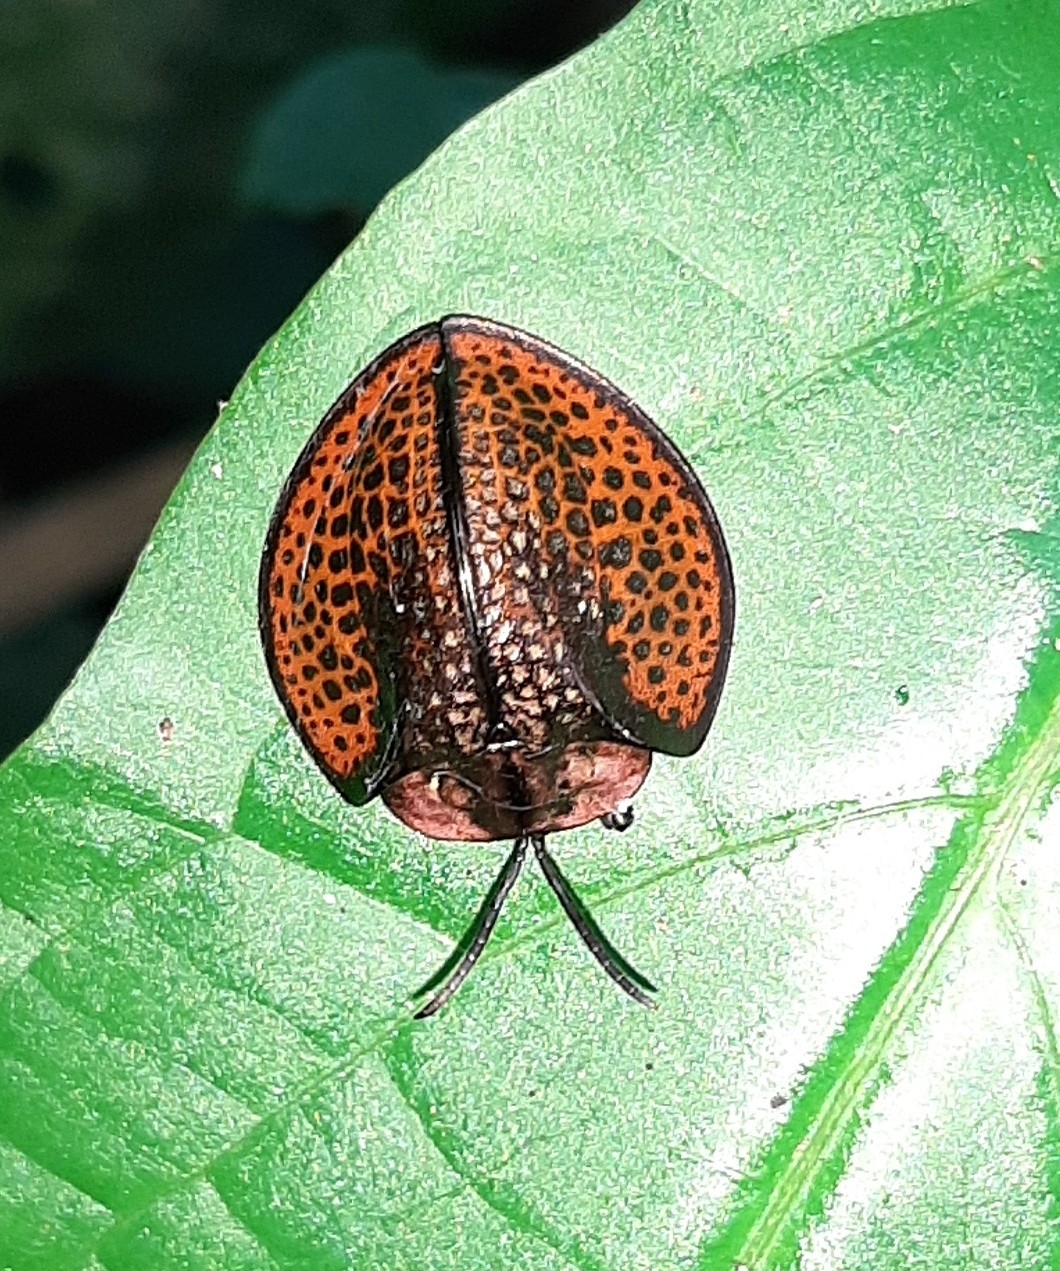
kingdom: Animalia
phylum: Arthropoda
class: Insecta
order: Coleoptera
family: Chrysomelidae
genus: Eugenysa
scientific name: Eugenysa cuprifulgens
